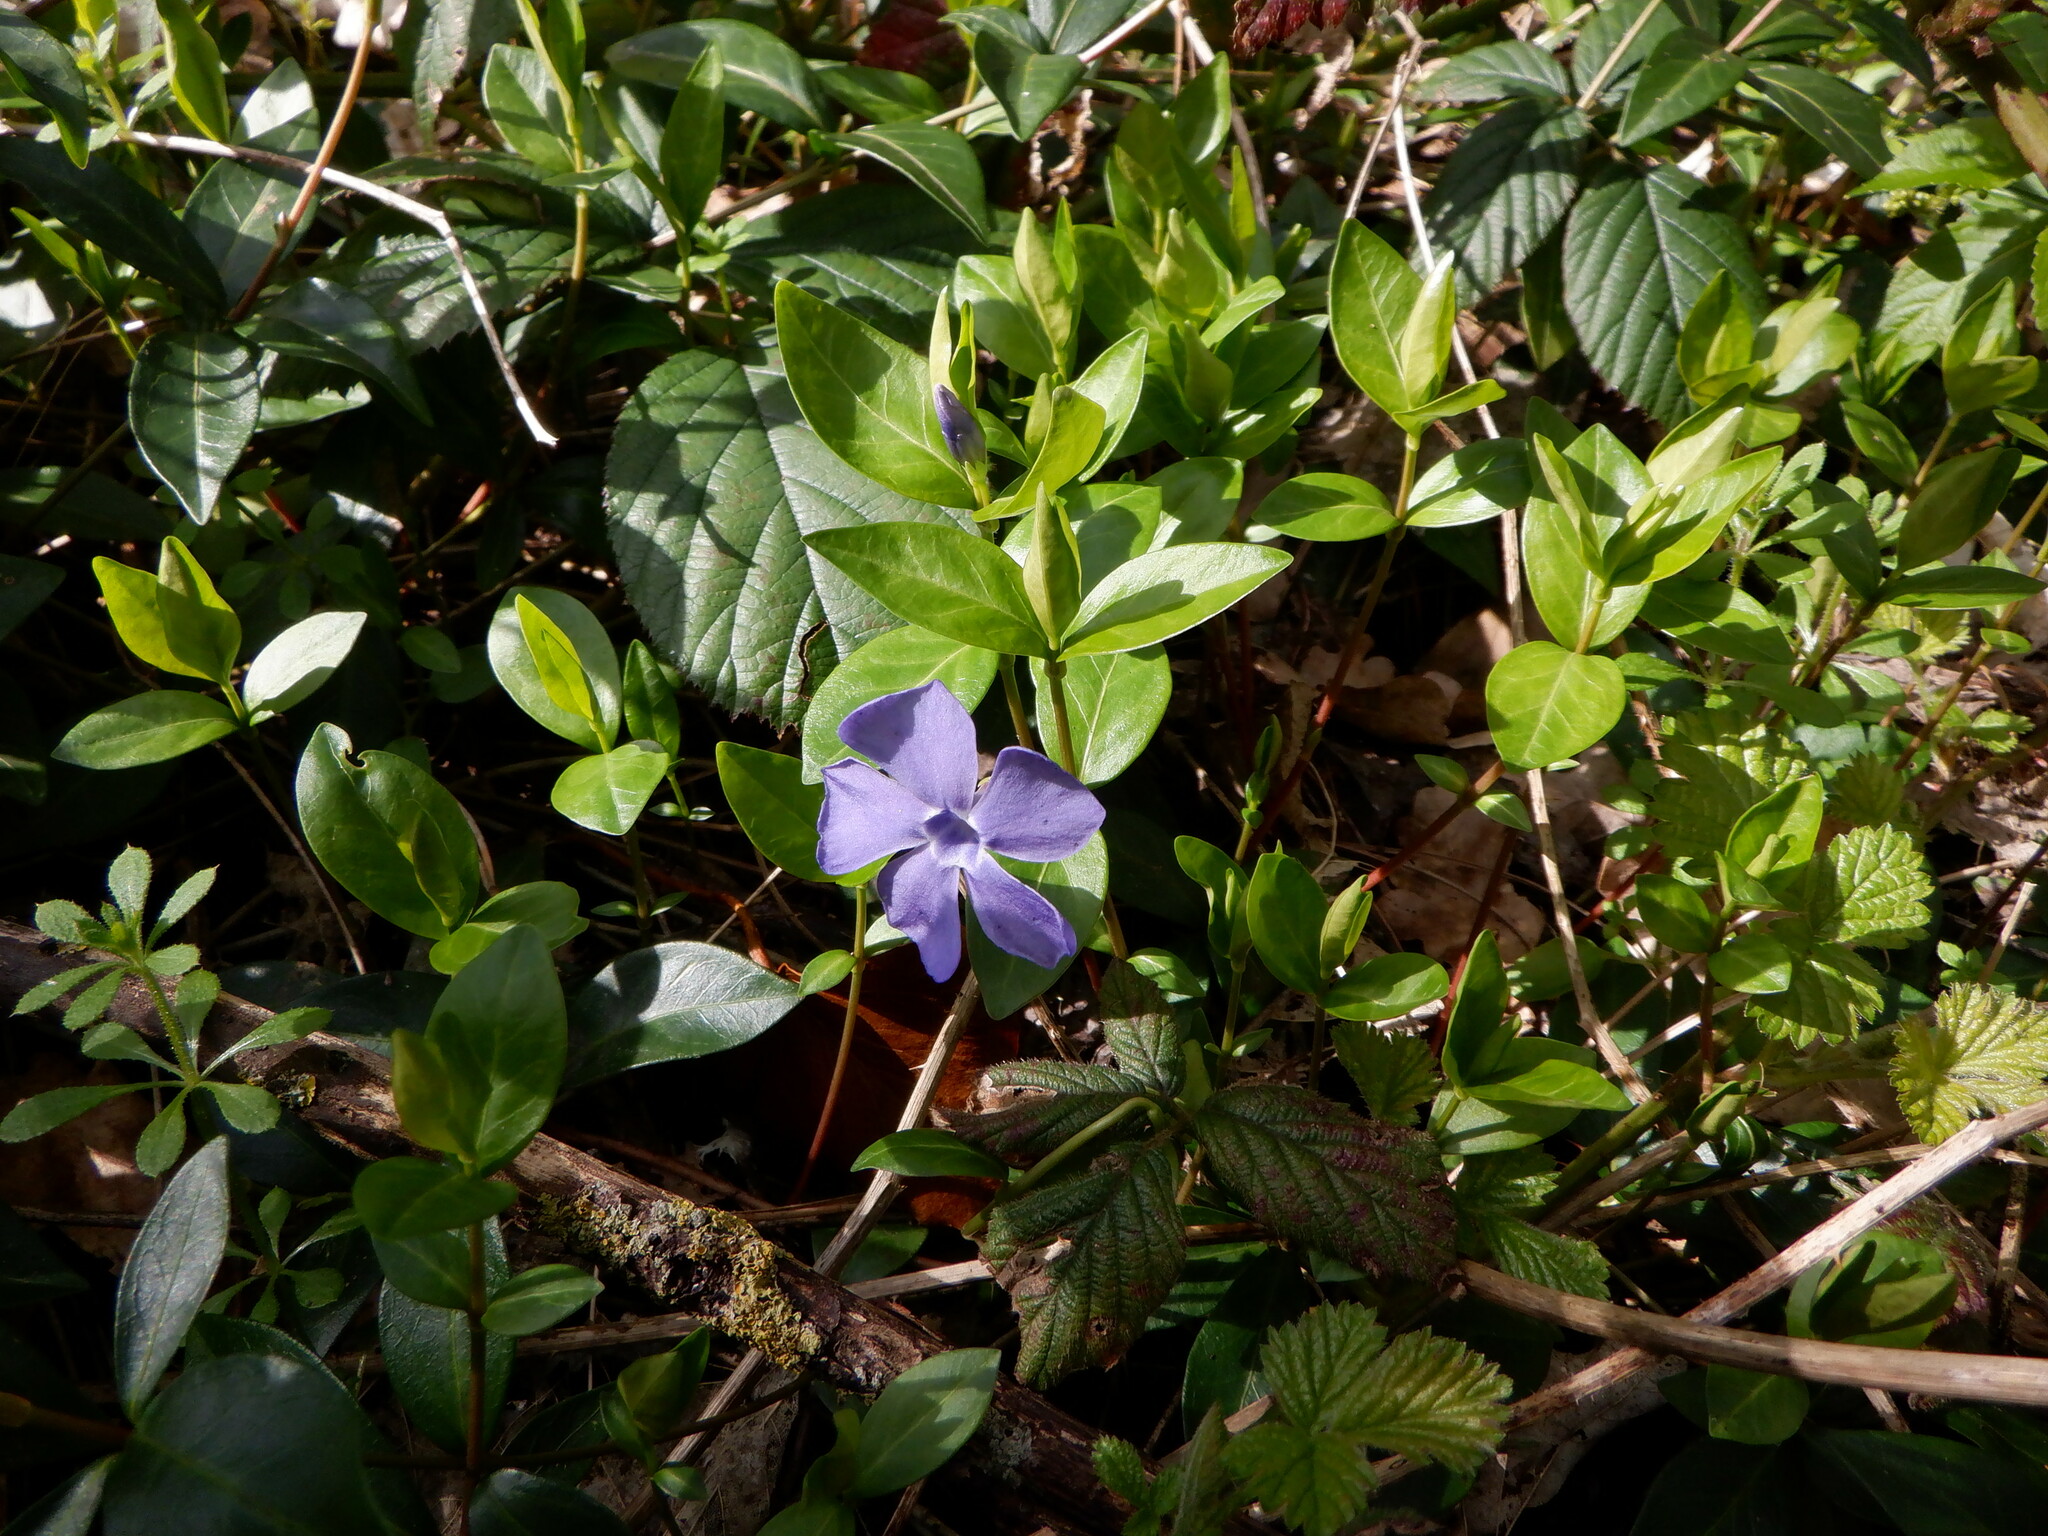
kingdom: Plantae
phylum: Tracheophyta
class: Magnoliopsida
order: Gentianales
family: Apocynaceae
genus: Vinca
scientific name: Vinca minor
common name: Lesser periwinkle
